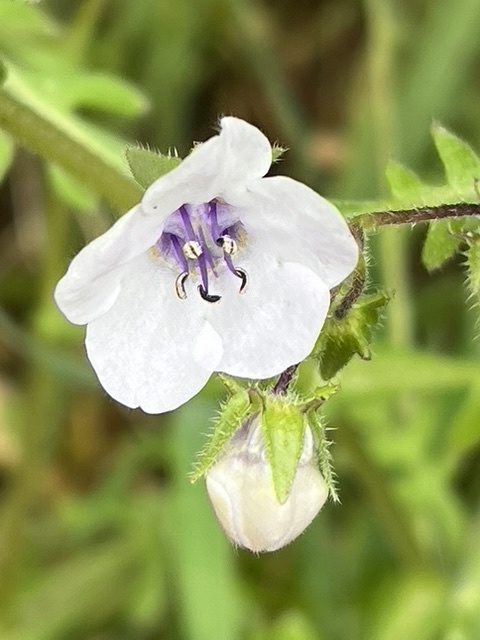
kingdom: Plantae
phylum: Tracheophyta
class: Magnoliopsida
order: Boraginales
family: Hydrophyllaceae
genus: Pholistoma
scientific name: Pholistoma auritum
